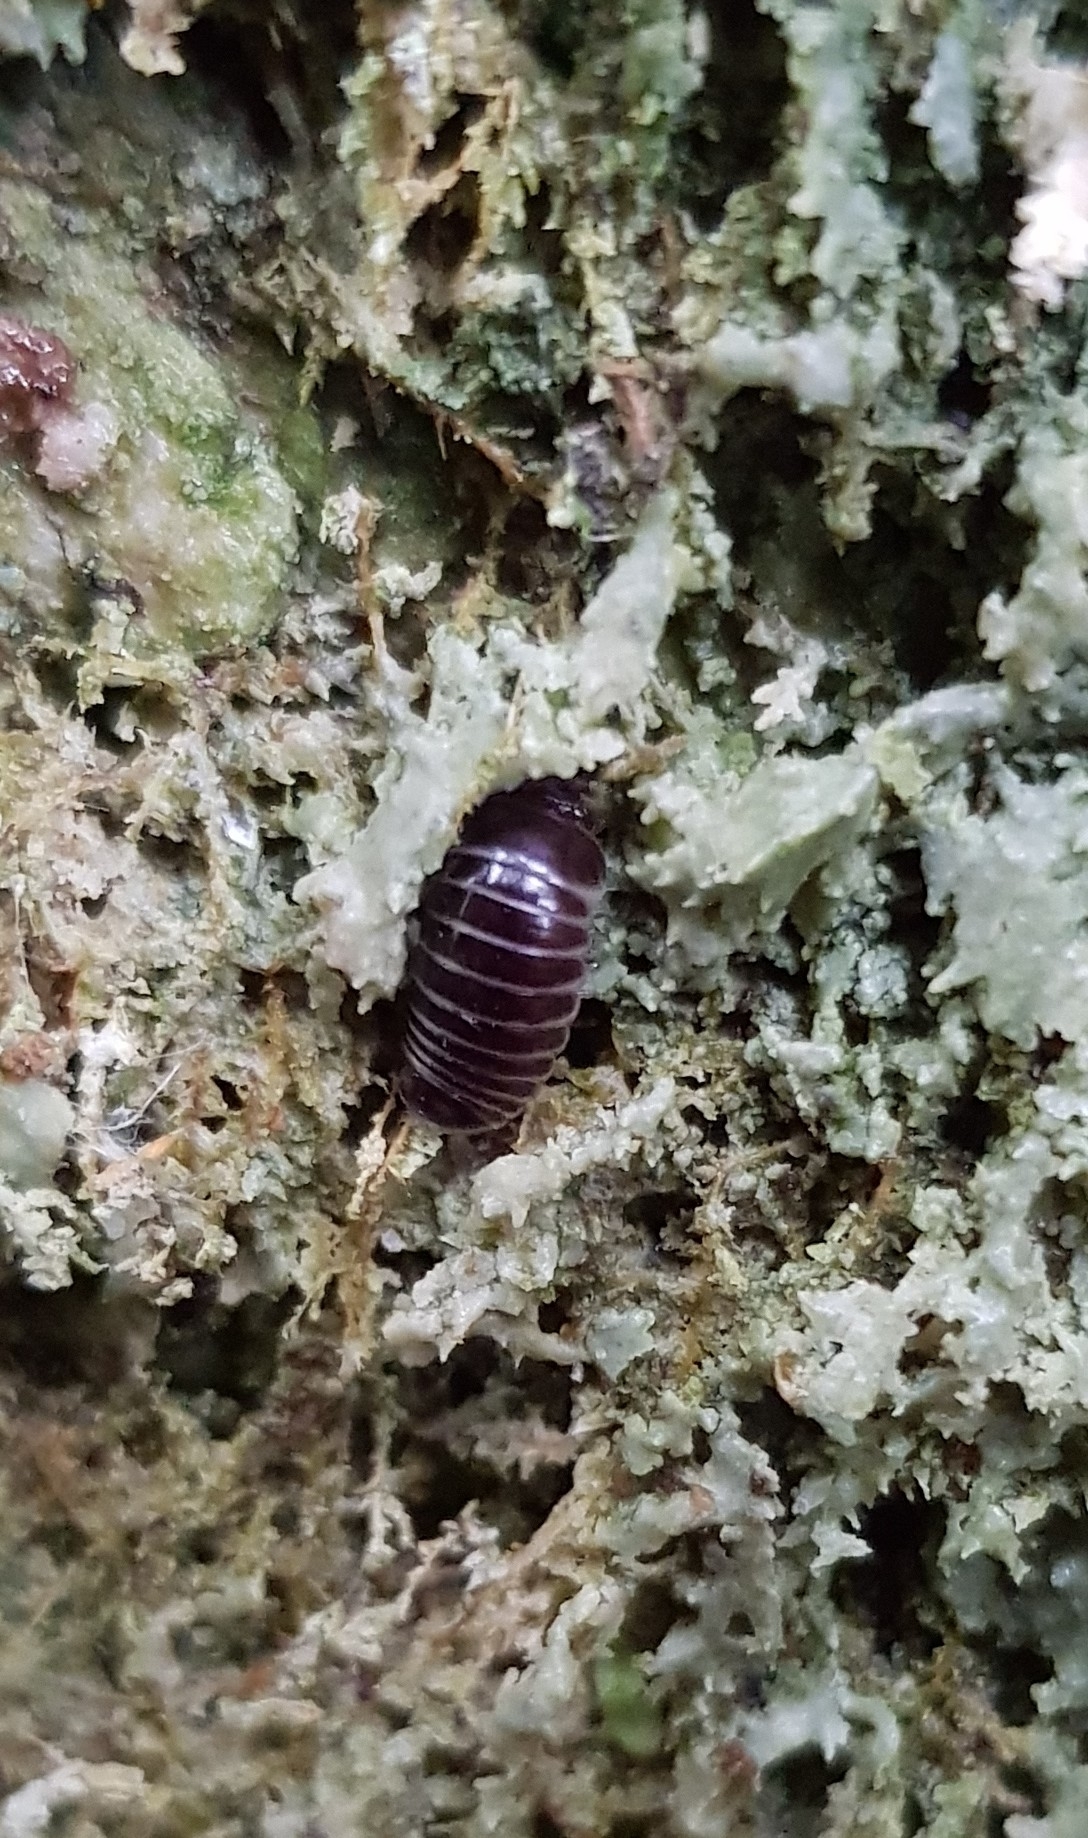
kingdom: Animalia
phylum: Arthropoda
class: Diplopoda
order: Glomerida
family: Glomeridae
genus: Glomeris
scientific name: Glomeris marginata
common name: Bordered pill millipede
